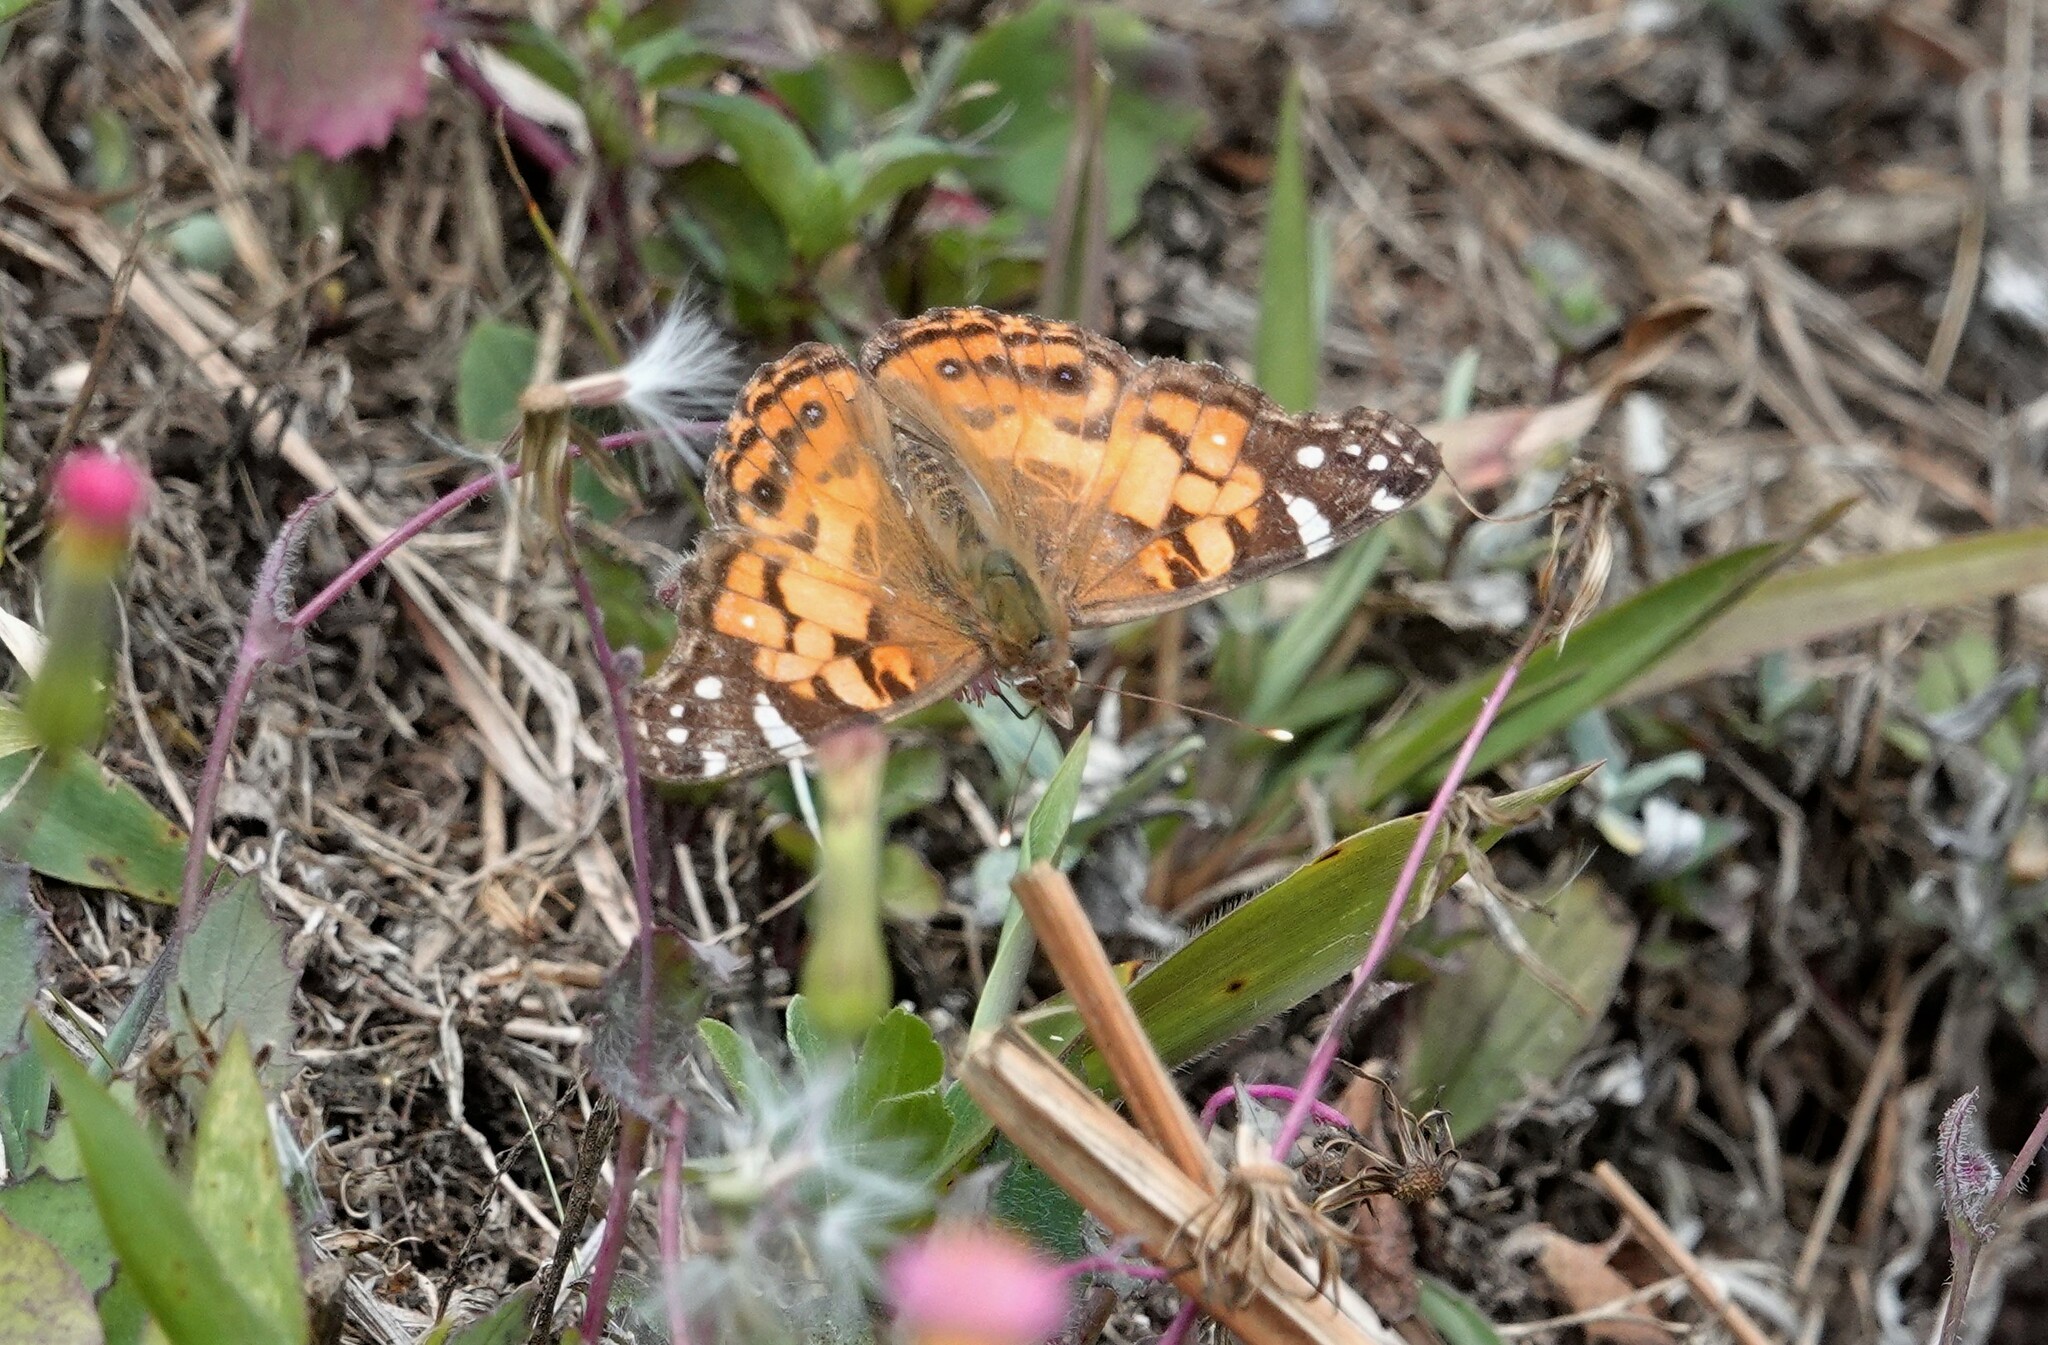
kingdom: Animalia
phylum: Arthropoda
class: Insecta
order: Lepidoptera
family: Nymphalidae
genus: Vanessa
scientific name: Vanessa virginiensis
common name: American lady
